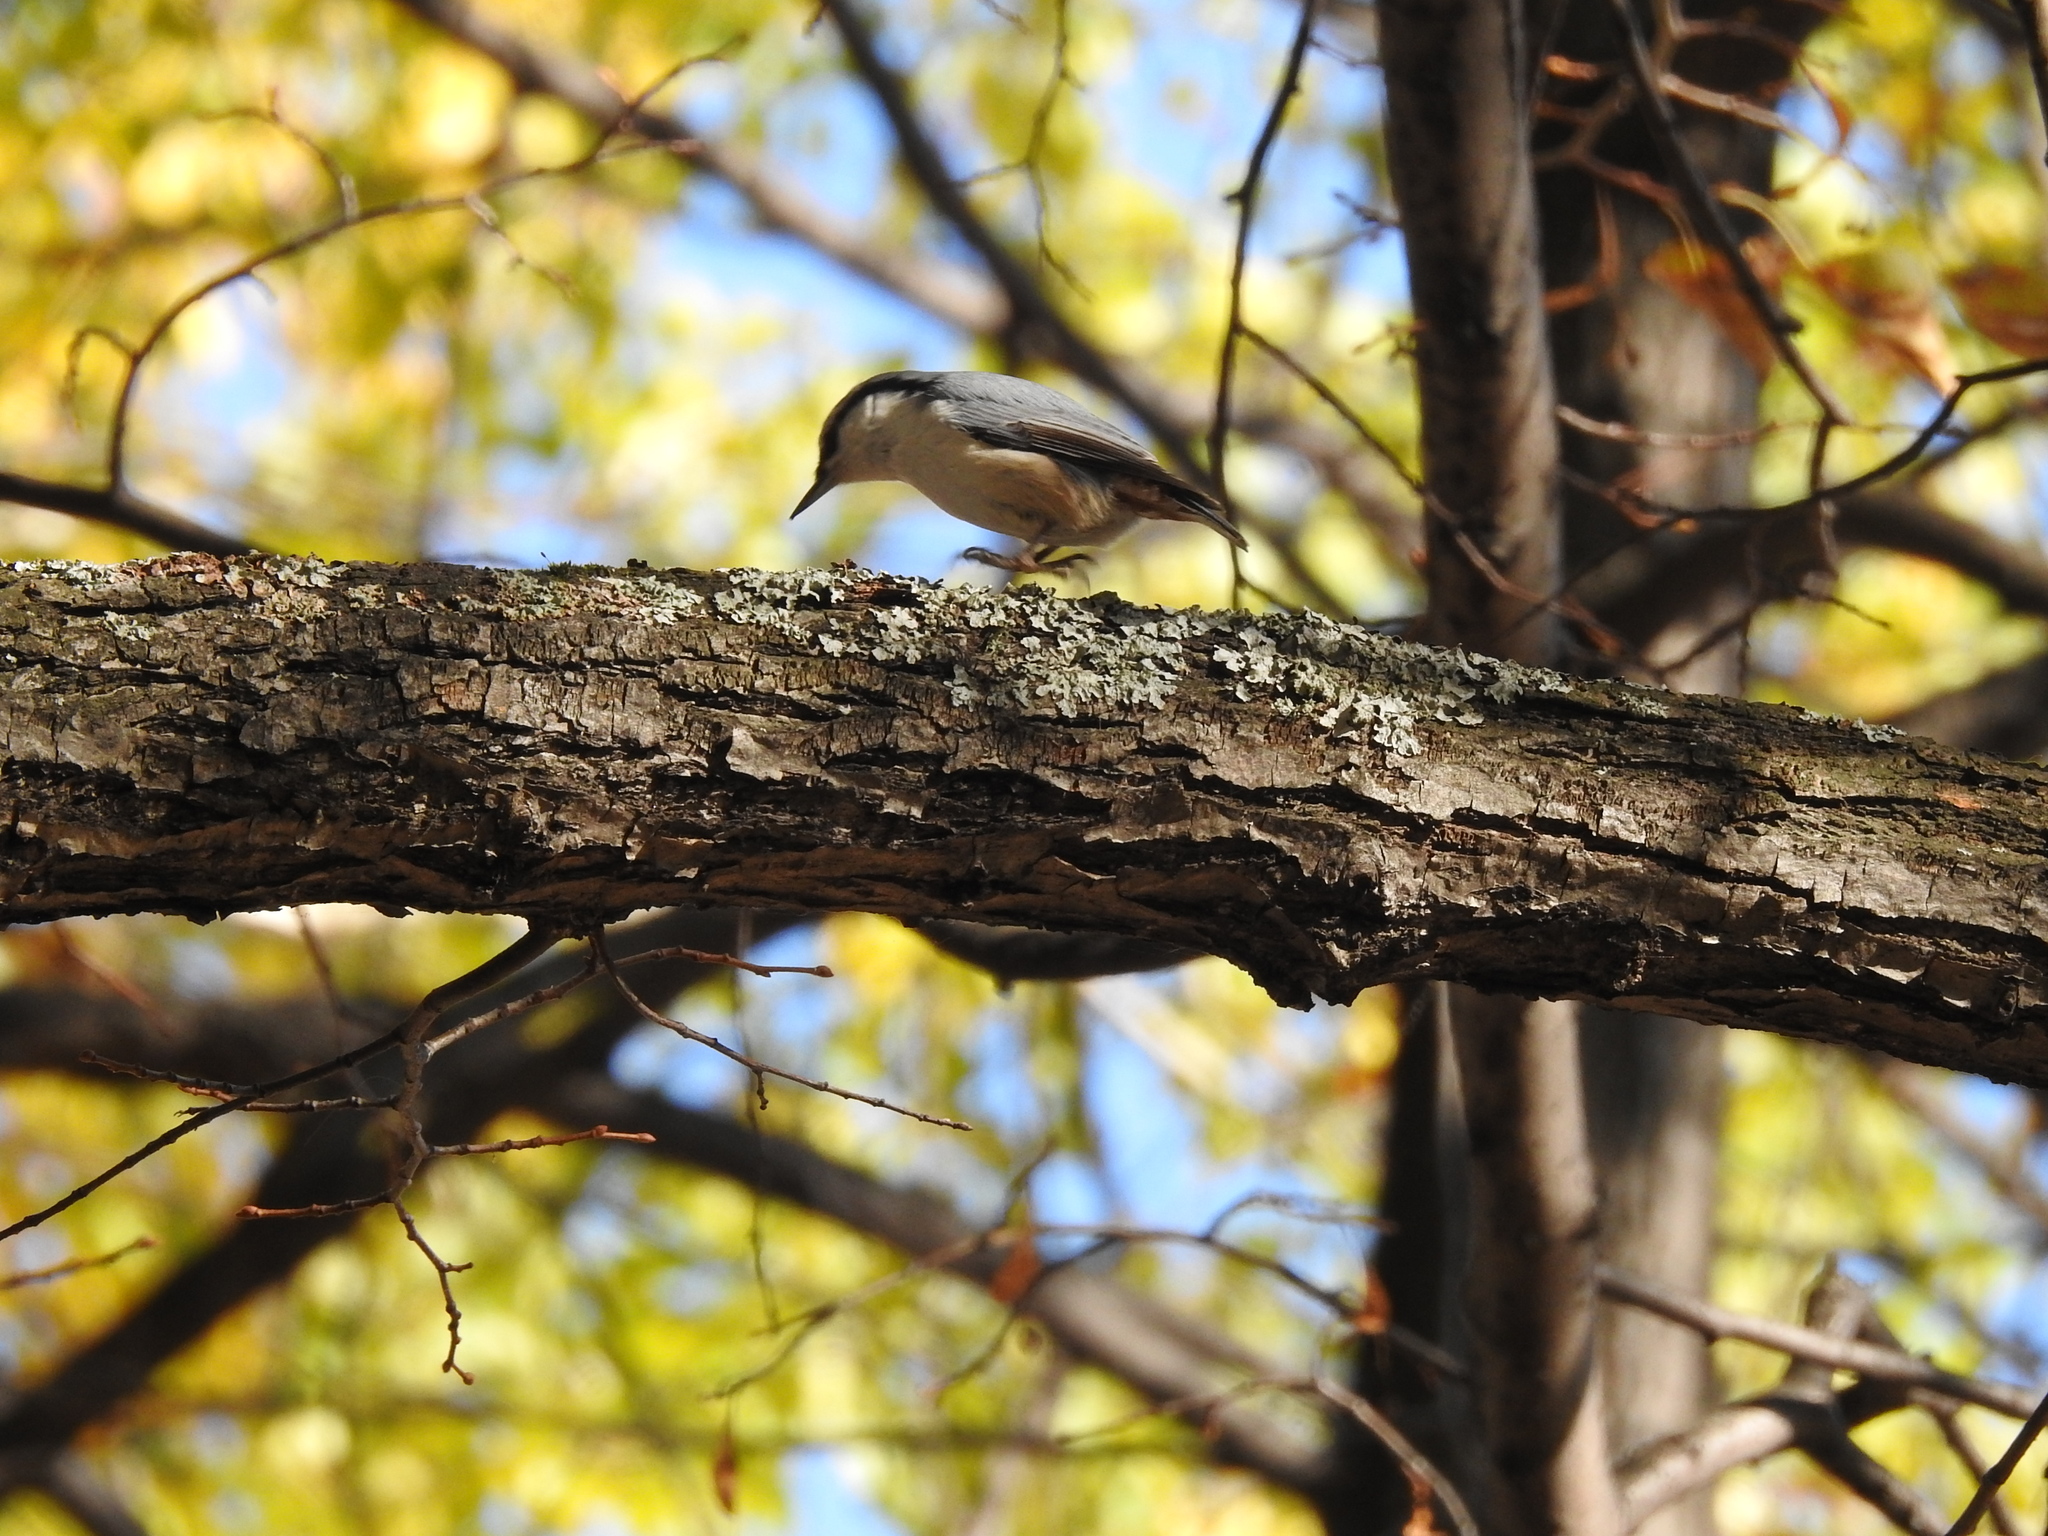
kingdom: Animalia
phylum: Chordata
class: Aves
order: Passeriformes
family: Sittidae
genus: Sitta
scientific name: Sitta europaea
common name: Eurasian nuthatch
